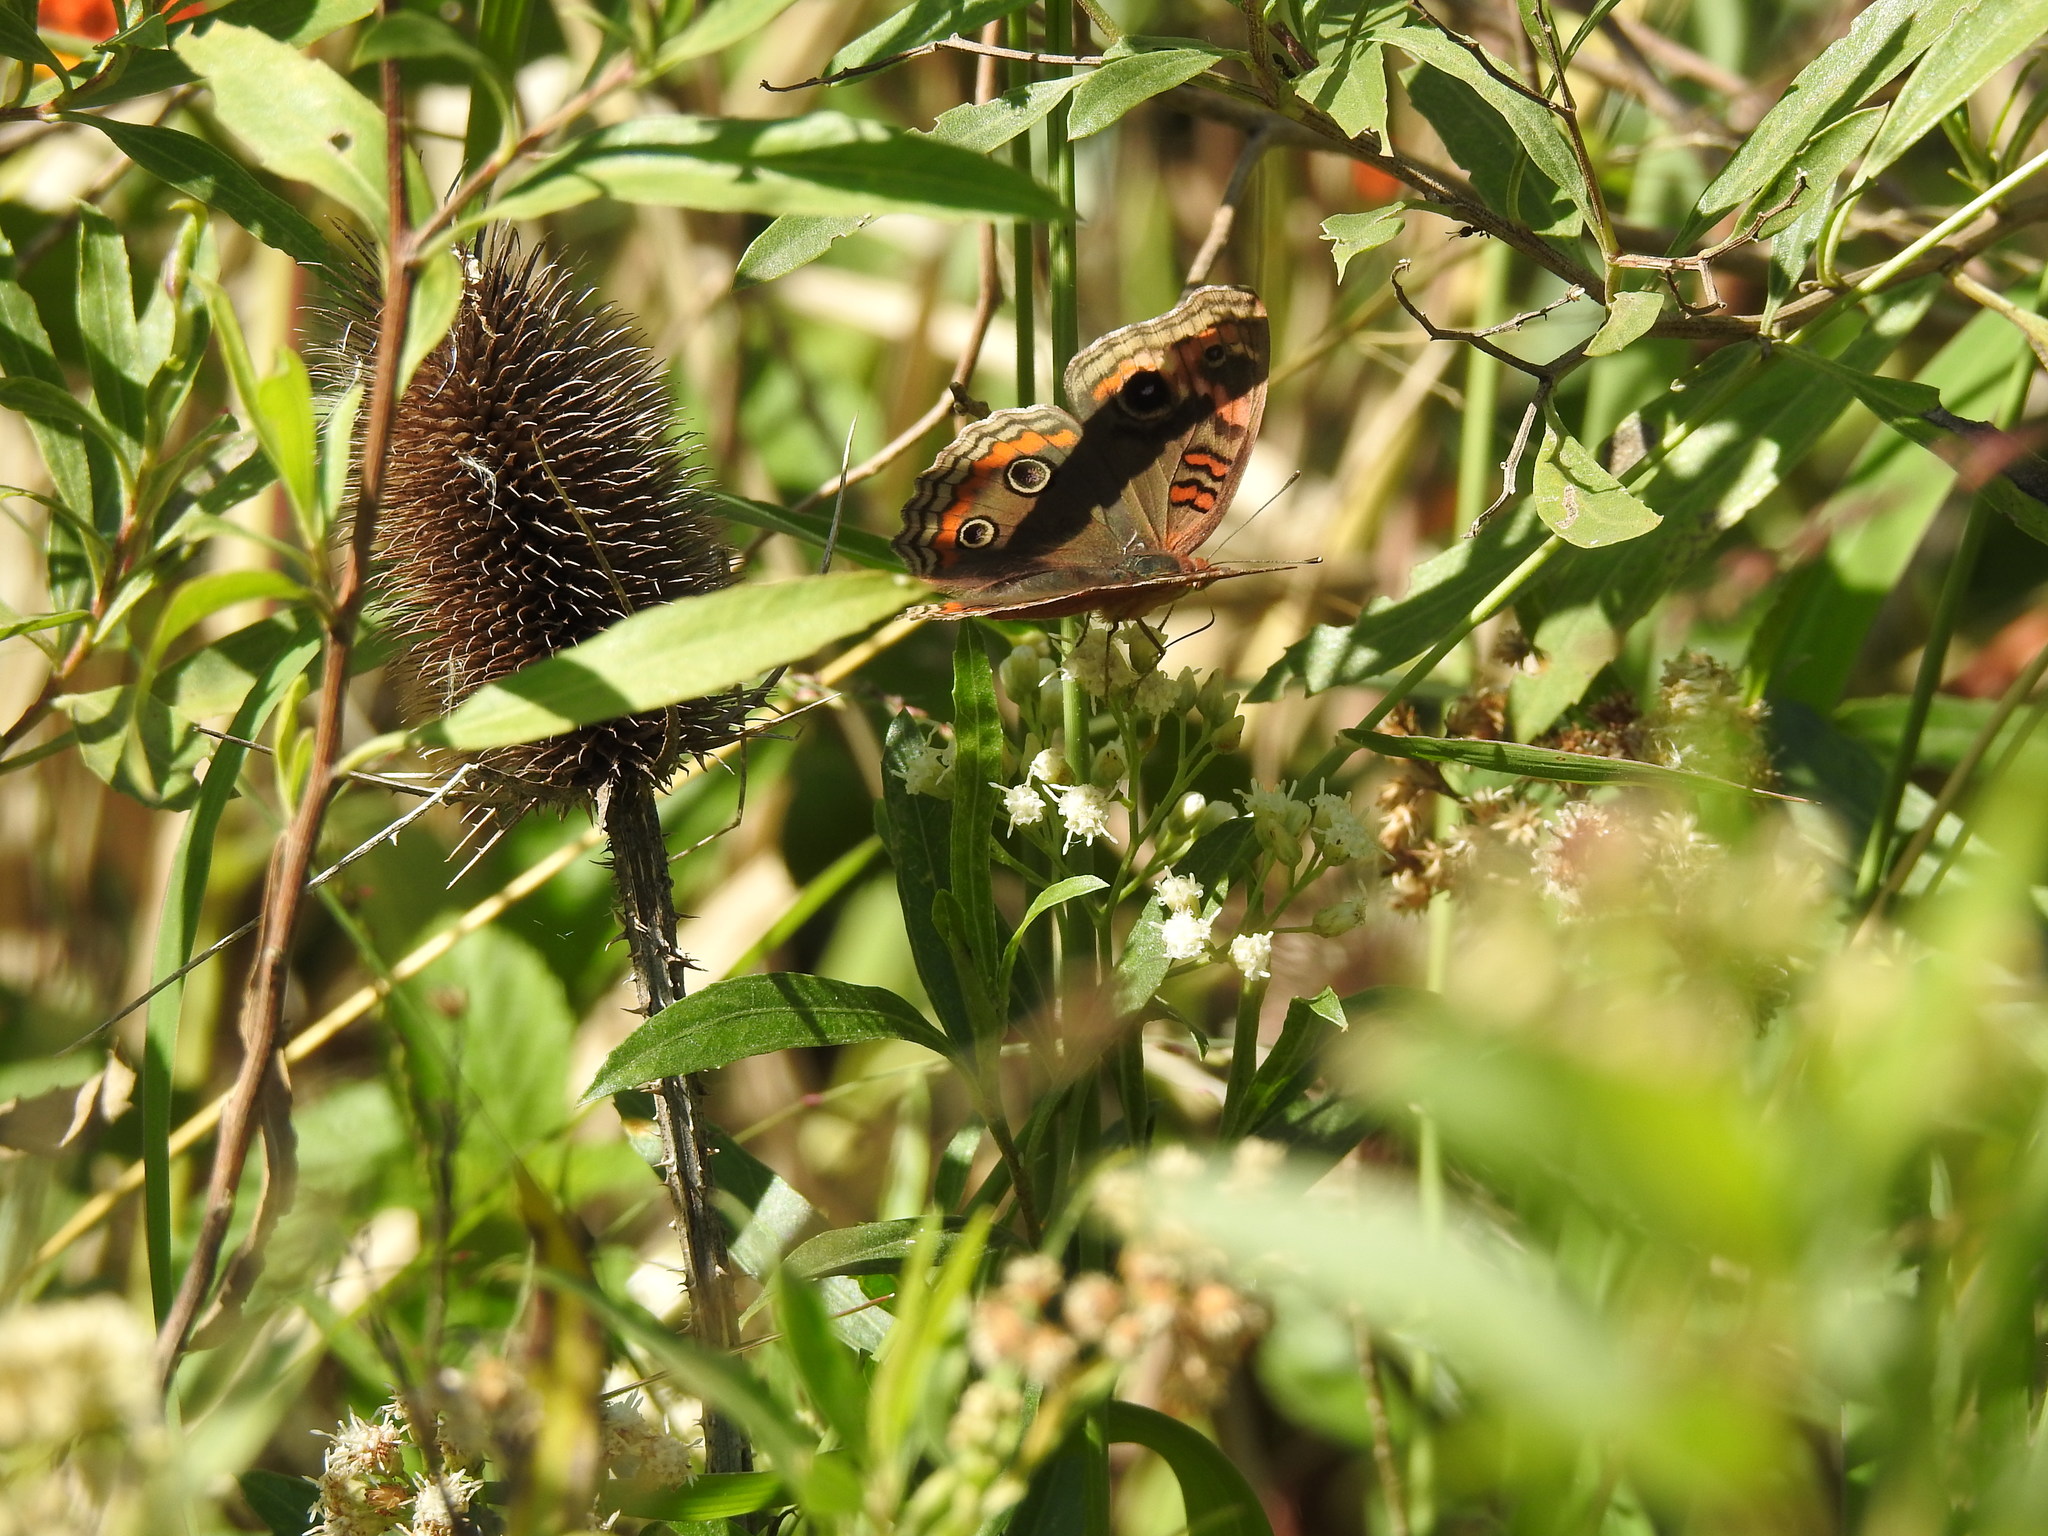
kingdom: Animalia
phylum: Arthropoda
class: Insecta
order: Lepidoptera
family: Nymphalidae
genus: Junonia
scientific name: Junonia lavinia
